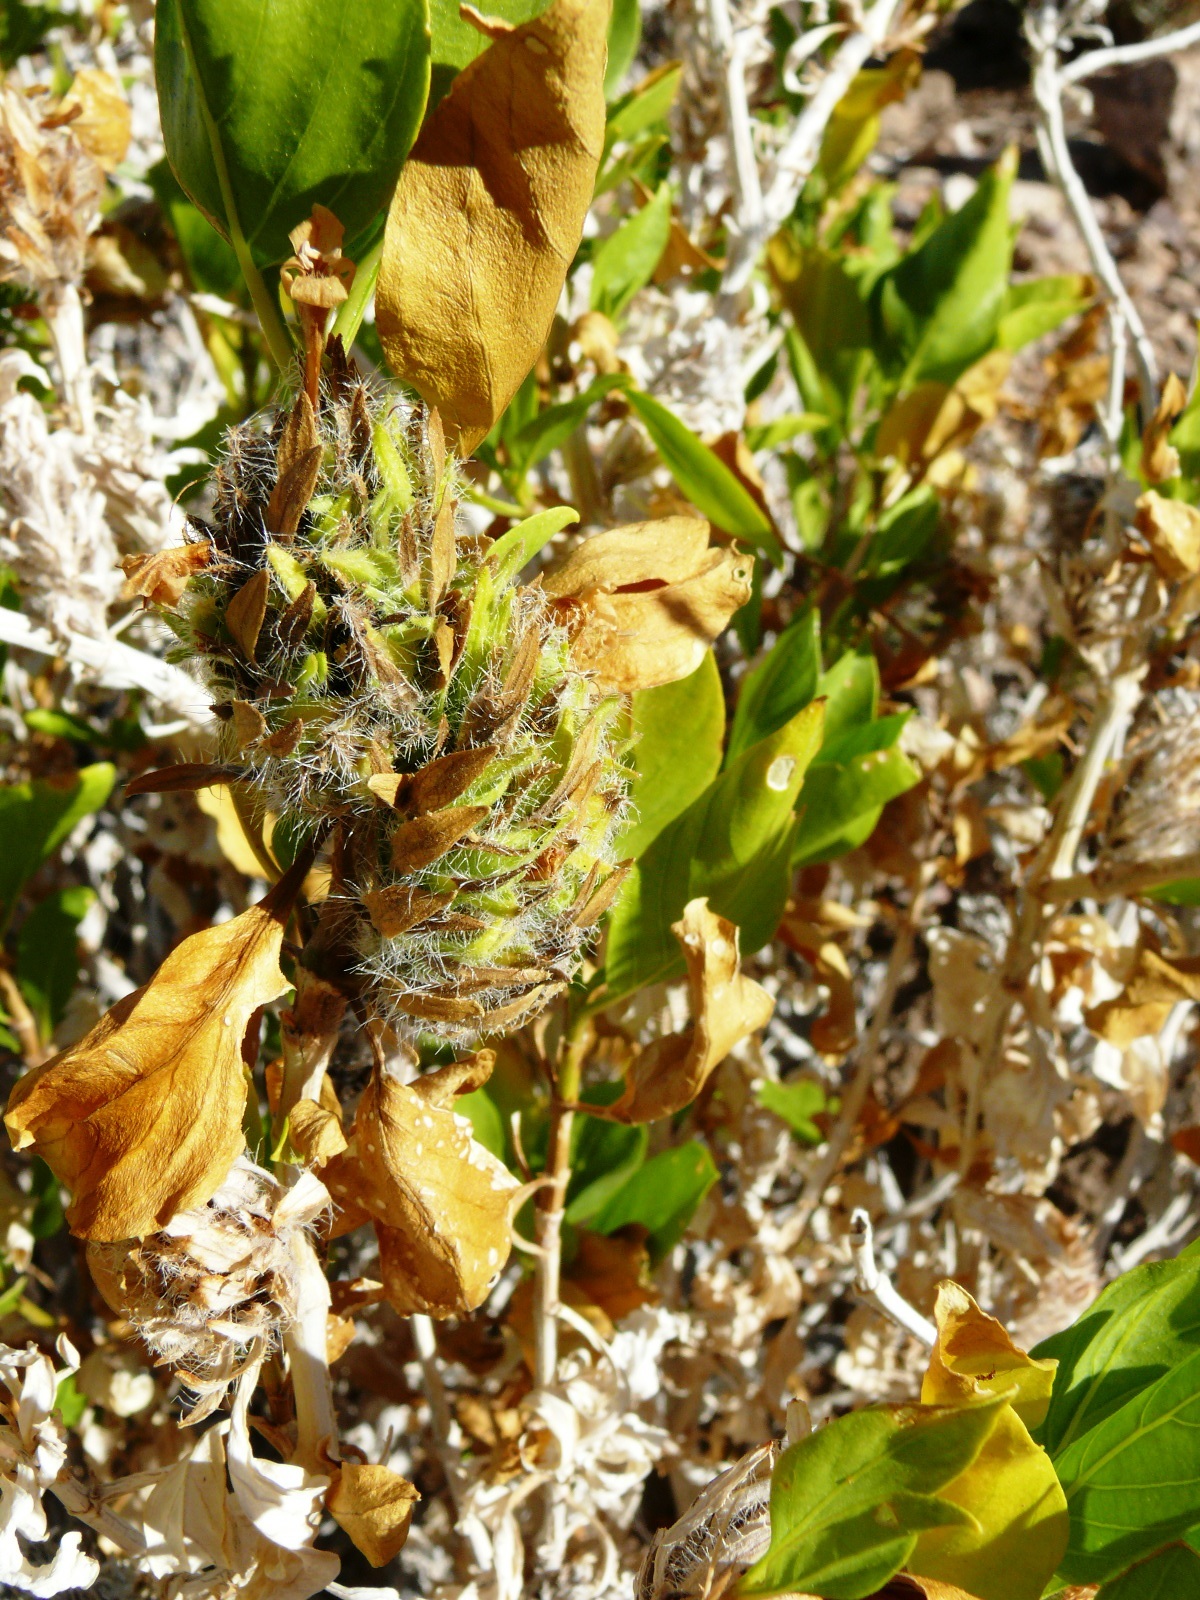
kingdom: Plantae
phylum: Tracheophyta
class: Magnoliopsida
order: Lamiales
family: Acanthaceae
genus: Petalidium
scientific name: Petalidium setosum
